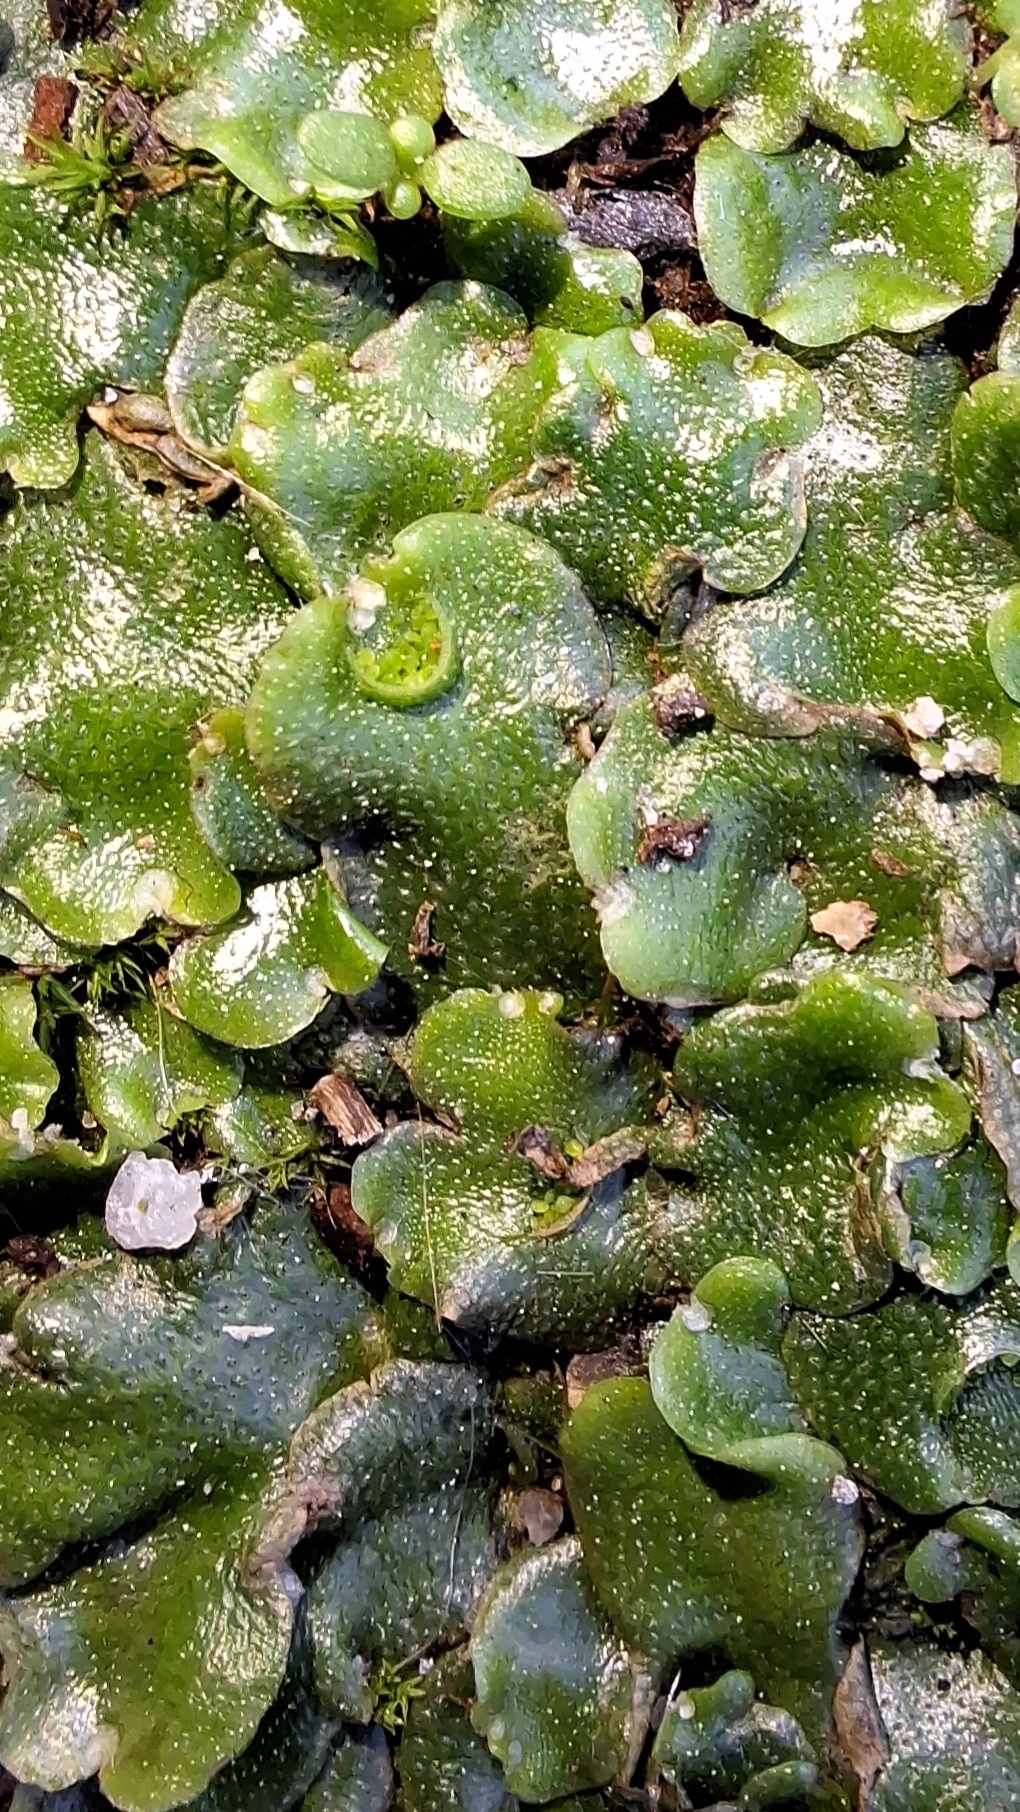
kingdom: Plantae
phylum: Marchantiophyta
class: Marchantiopsida
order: Lunulariales
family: Lunulariaceae
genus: Lunularia
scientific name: Lunularia cruciata
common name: Crescent-cup liverwort
